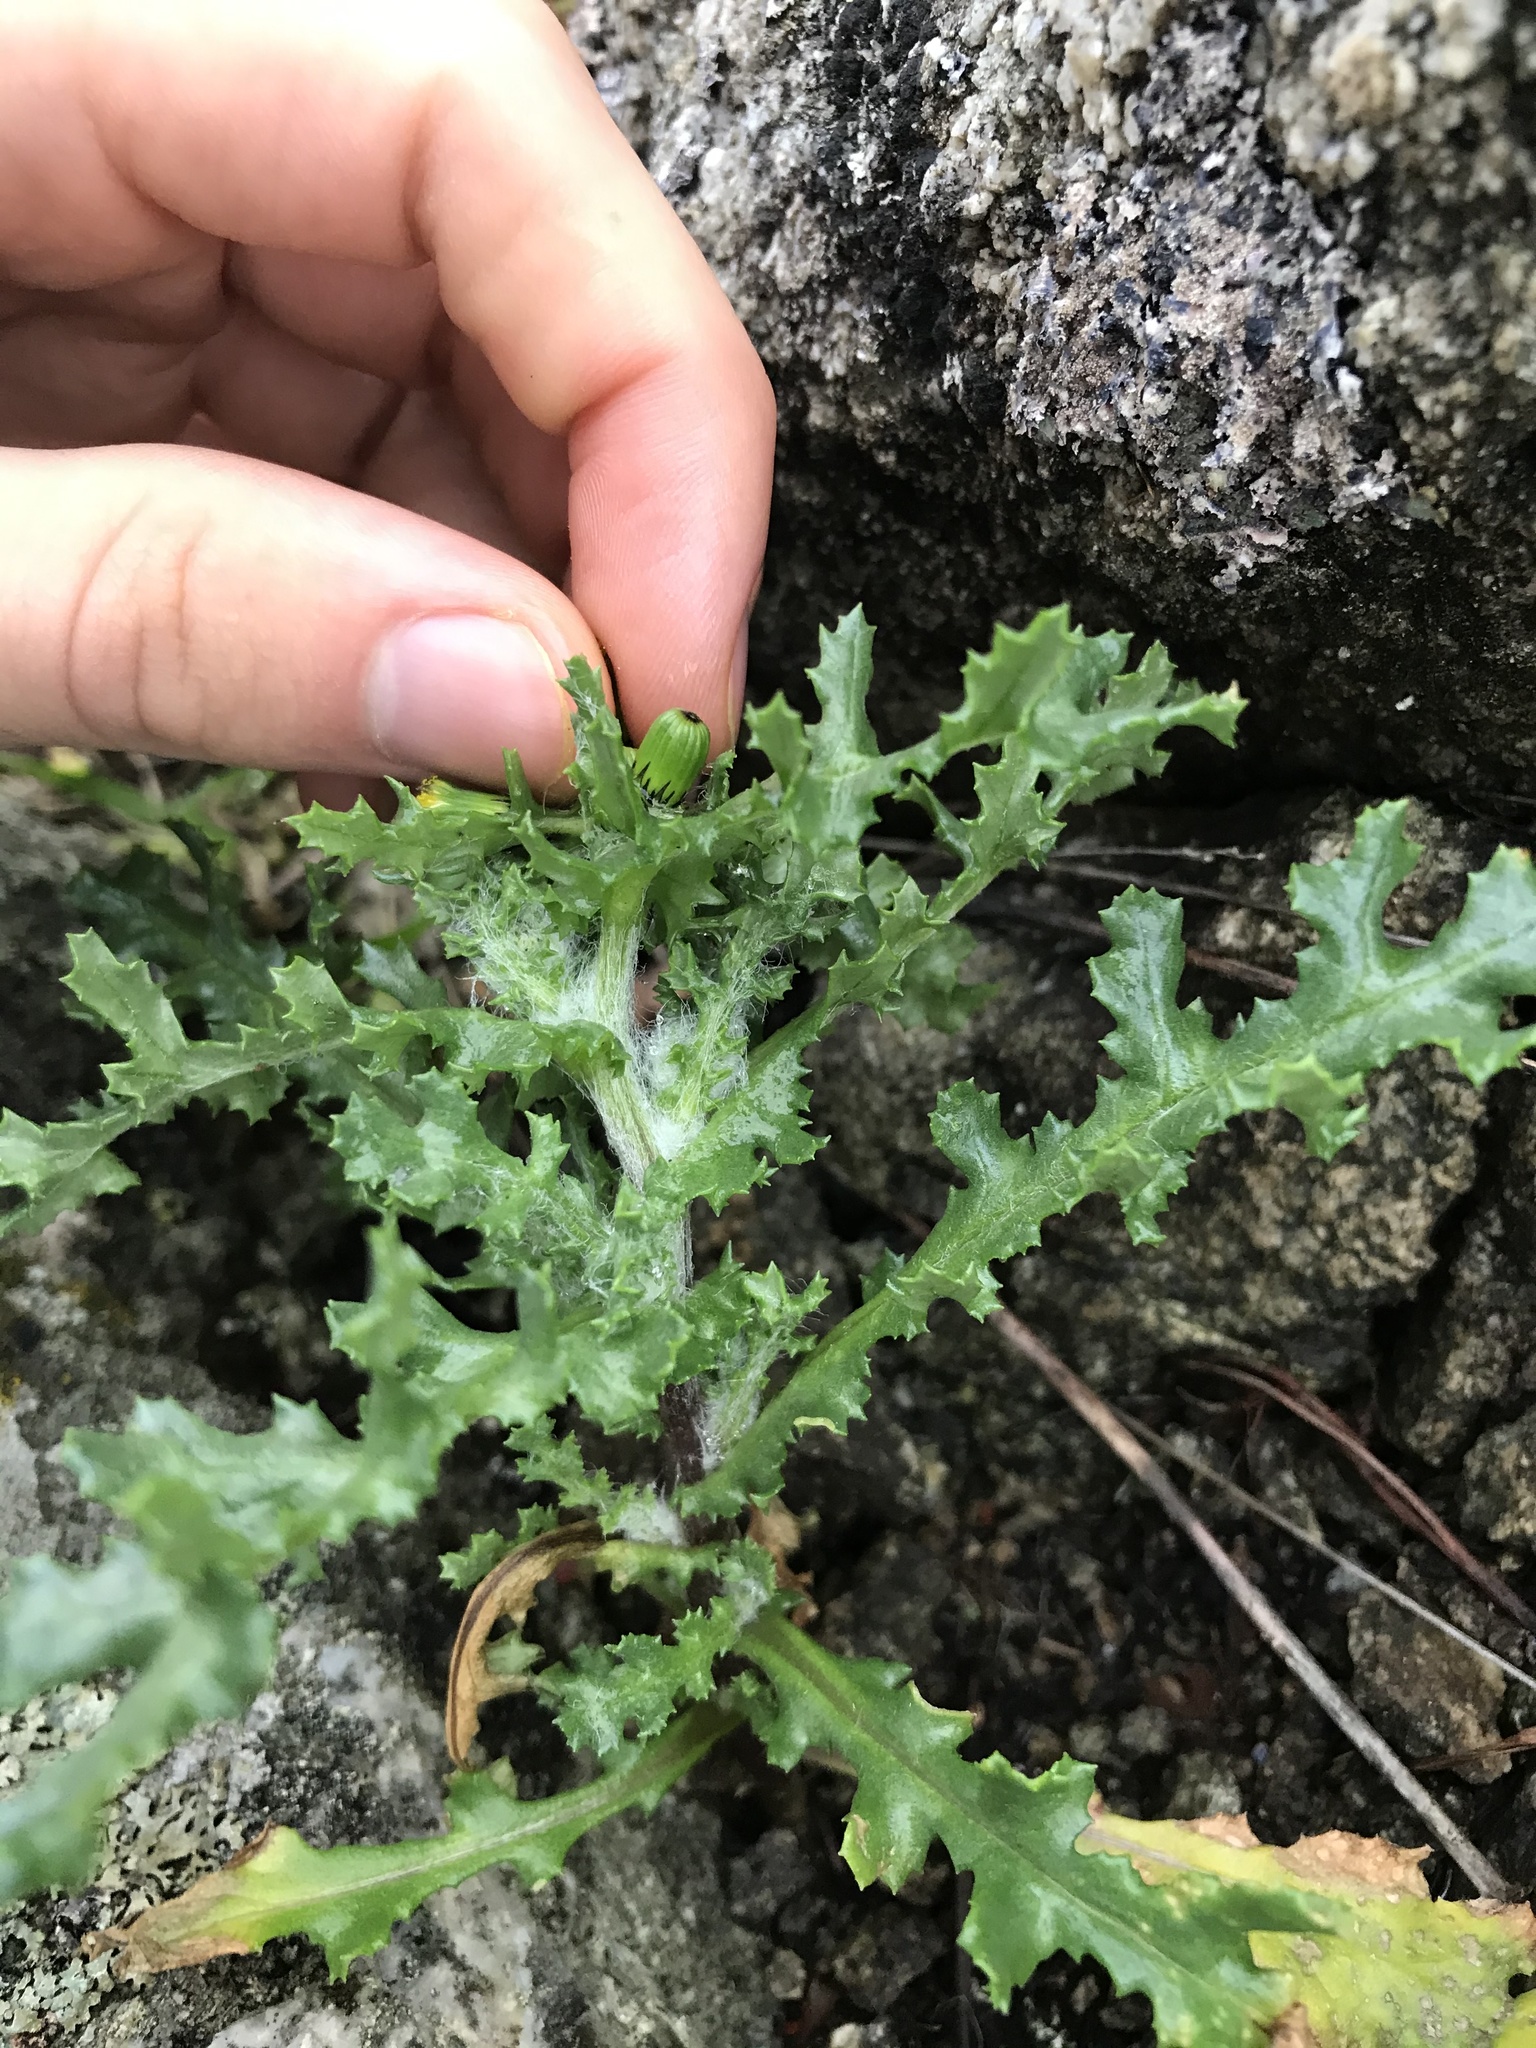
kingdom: Plantae
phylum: Tracheophyta
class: Magnoliopsida
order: Asterales
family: Asteraceae
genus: Senecio
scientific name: Senecio vulgaris
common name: Old-man-in-the-spring
